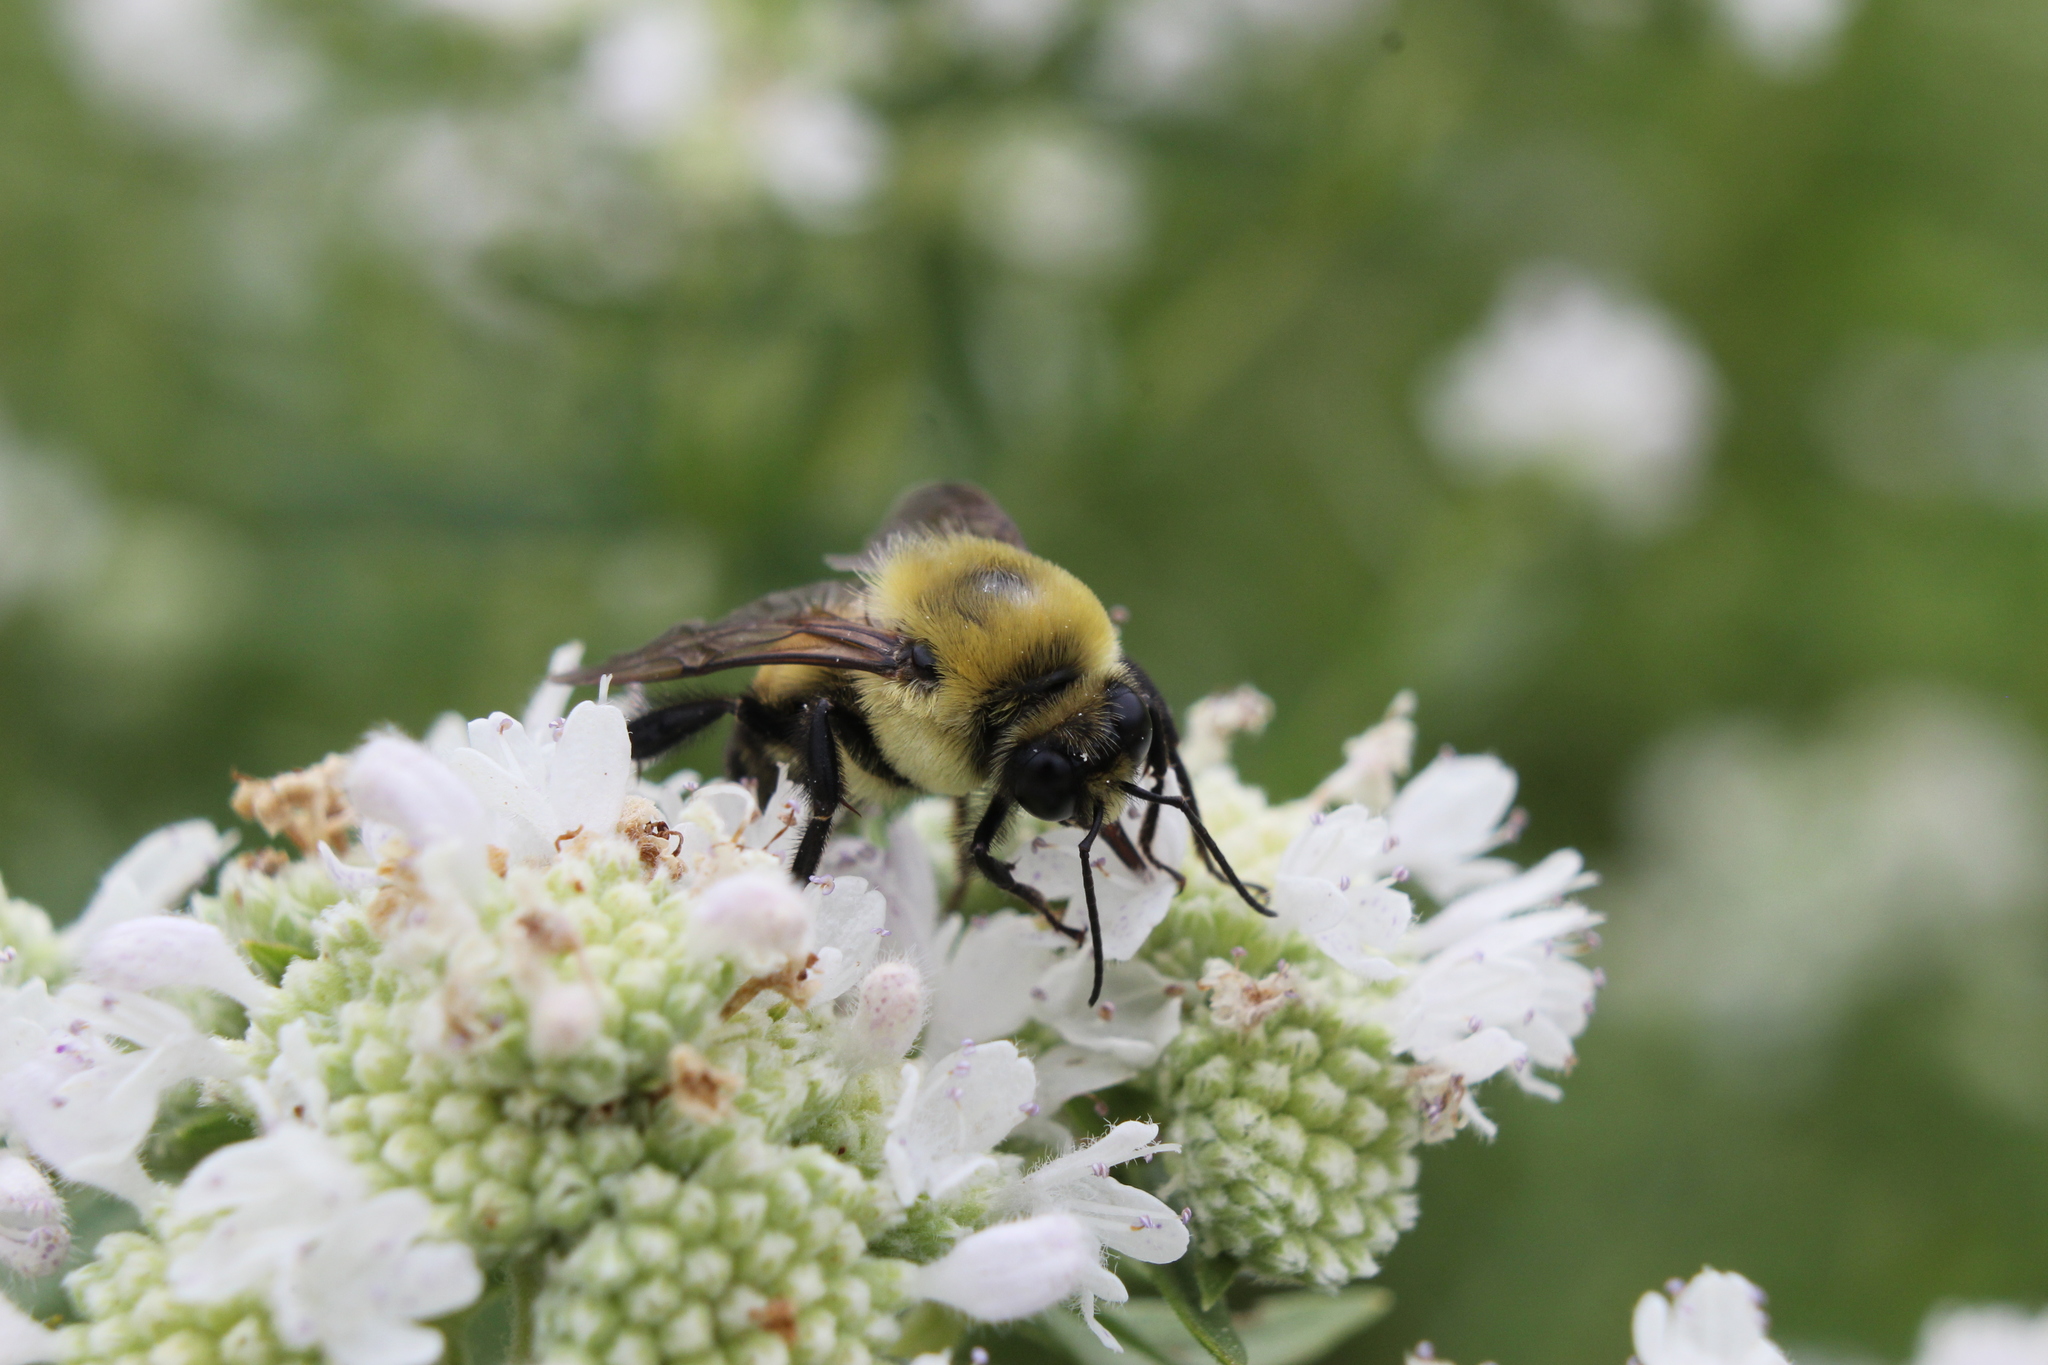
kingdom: Animalia
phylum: Arthropoda
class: Insecta
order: Hymenoptera
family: Apidae
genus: Bombus
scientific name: Bombus griseocollis
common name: Brown-belted bumble bee
